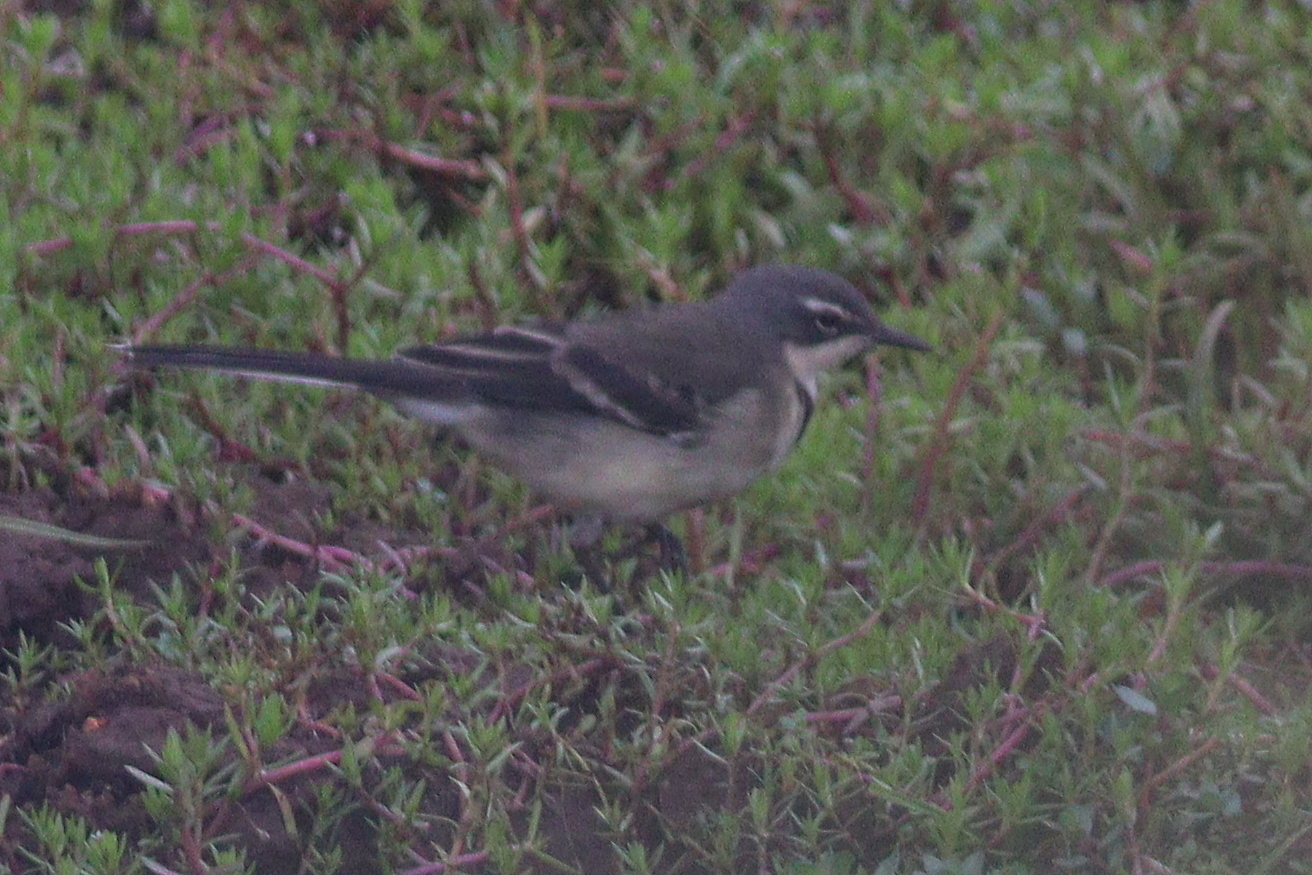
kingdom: Animalia
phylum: Chordata
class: Aves
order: Passeriformes
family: Motacillidae
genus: Motacilla
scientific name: Motacilla capensis
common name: Cape wagtail
